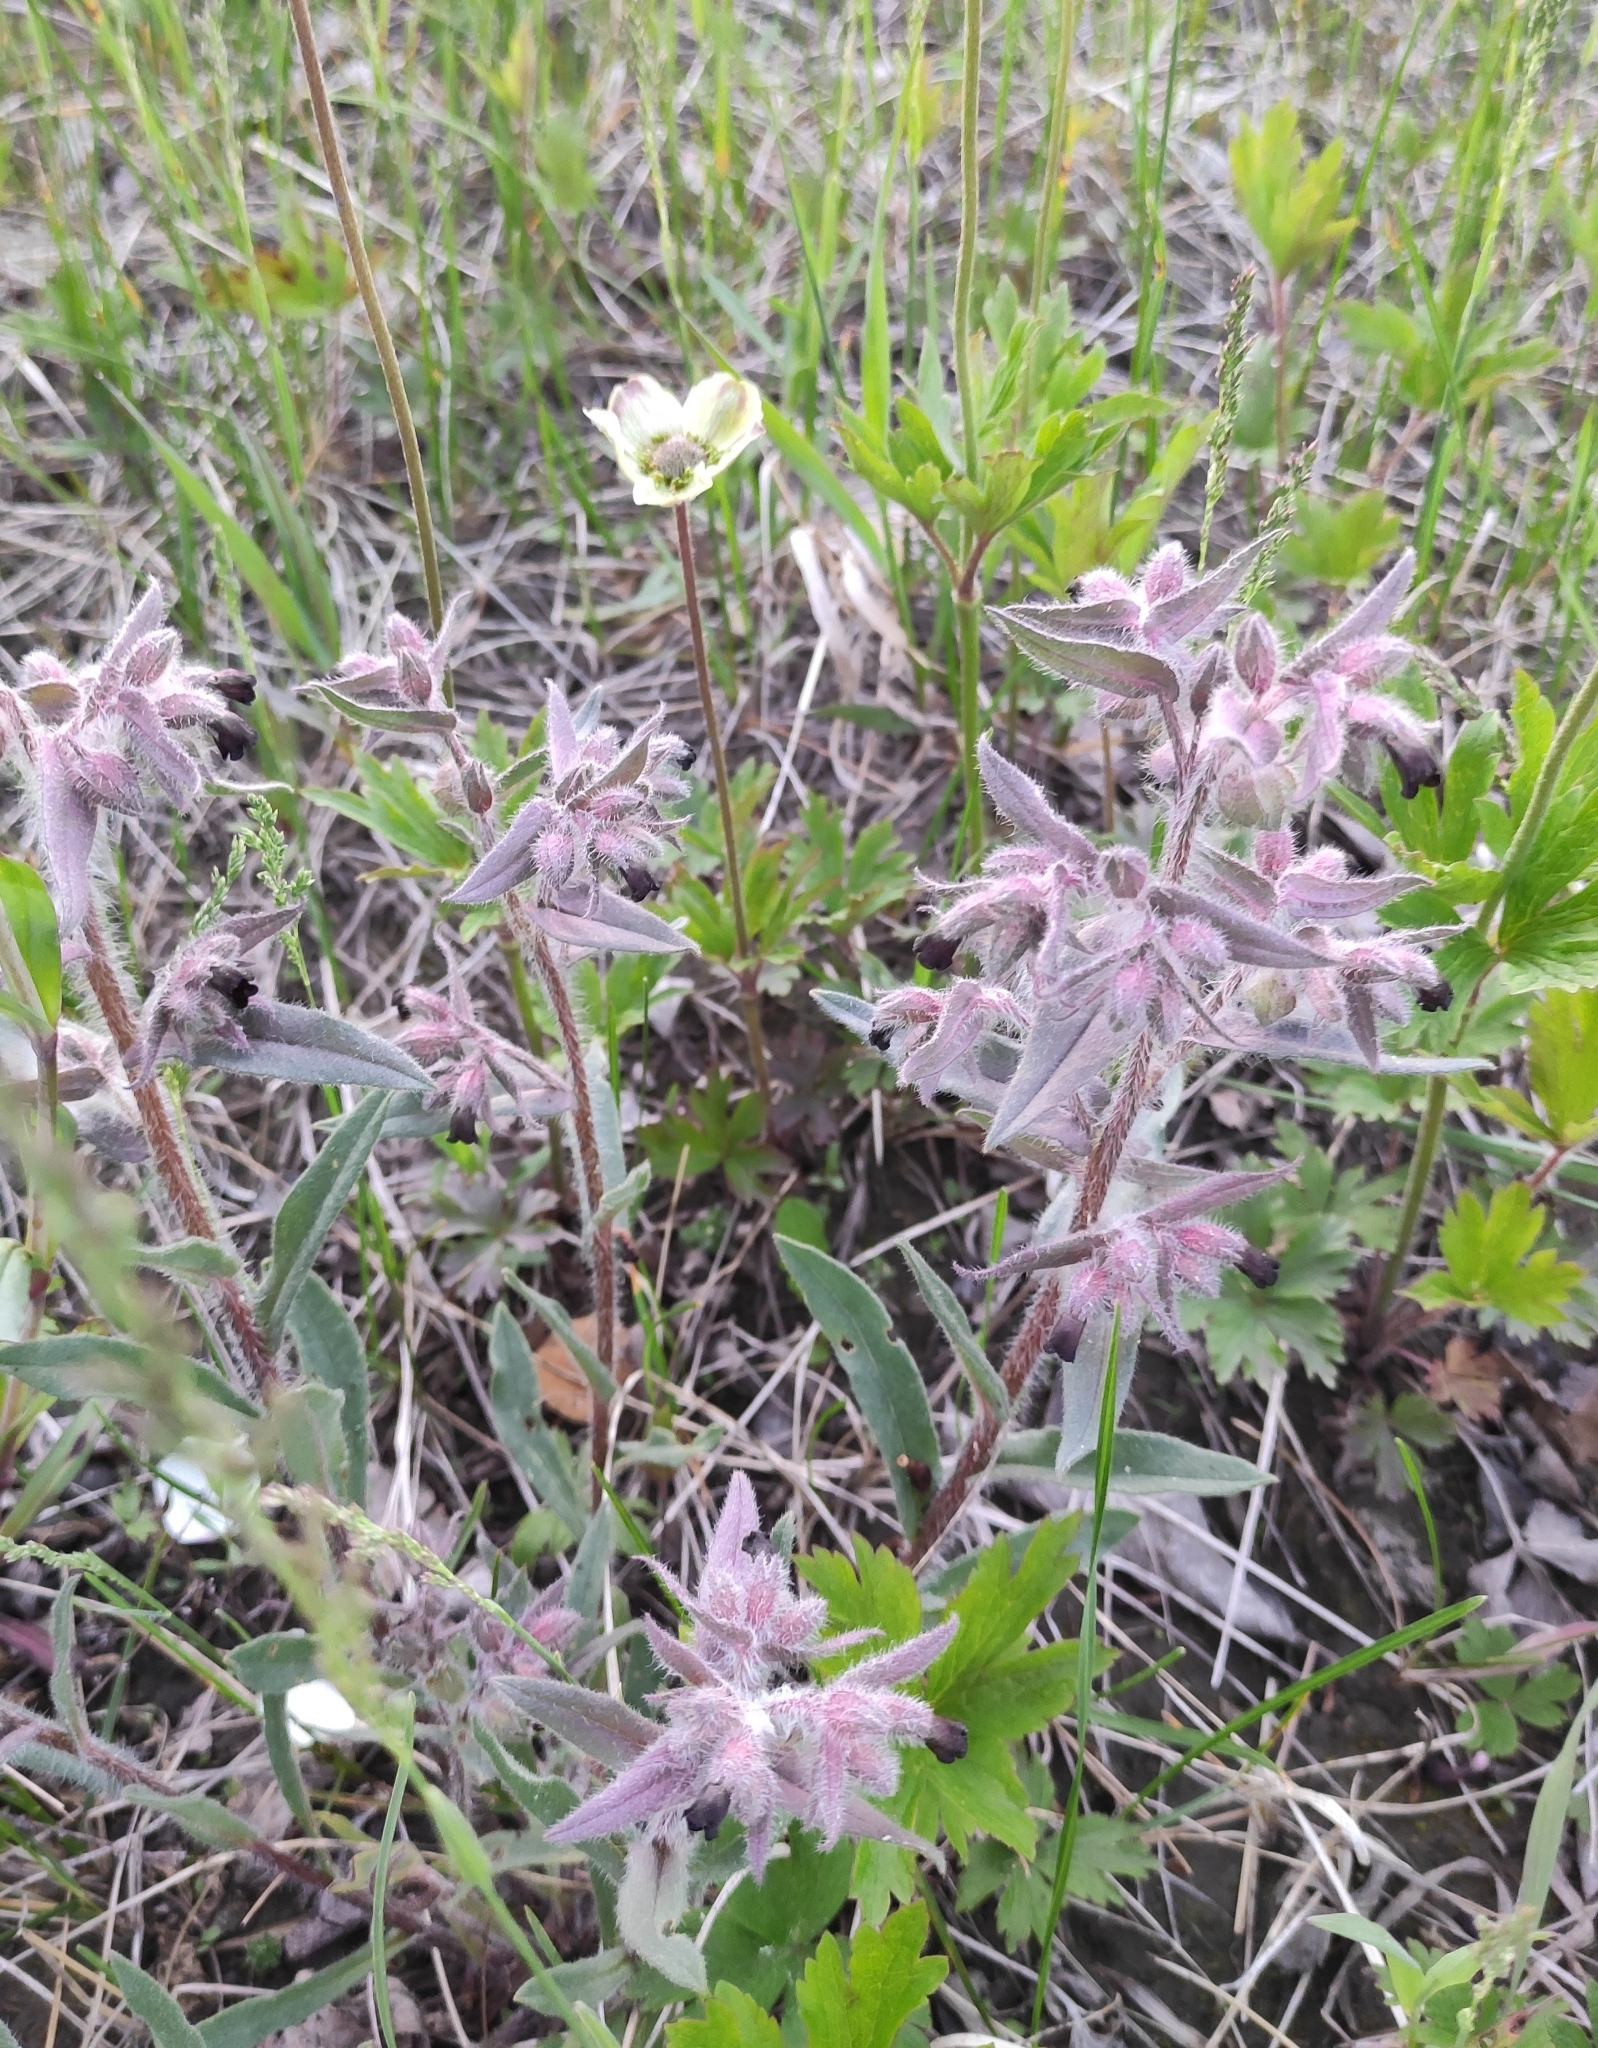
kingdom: Plantae
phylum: Tracheophyta
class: Magnoliopsida
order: Boraginales
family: Boraginaceae
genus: Nonea
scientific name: Nonea pulla
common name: Brown nonea
